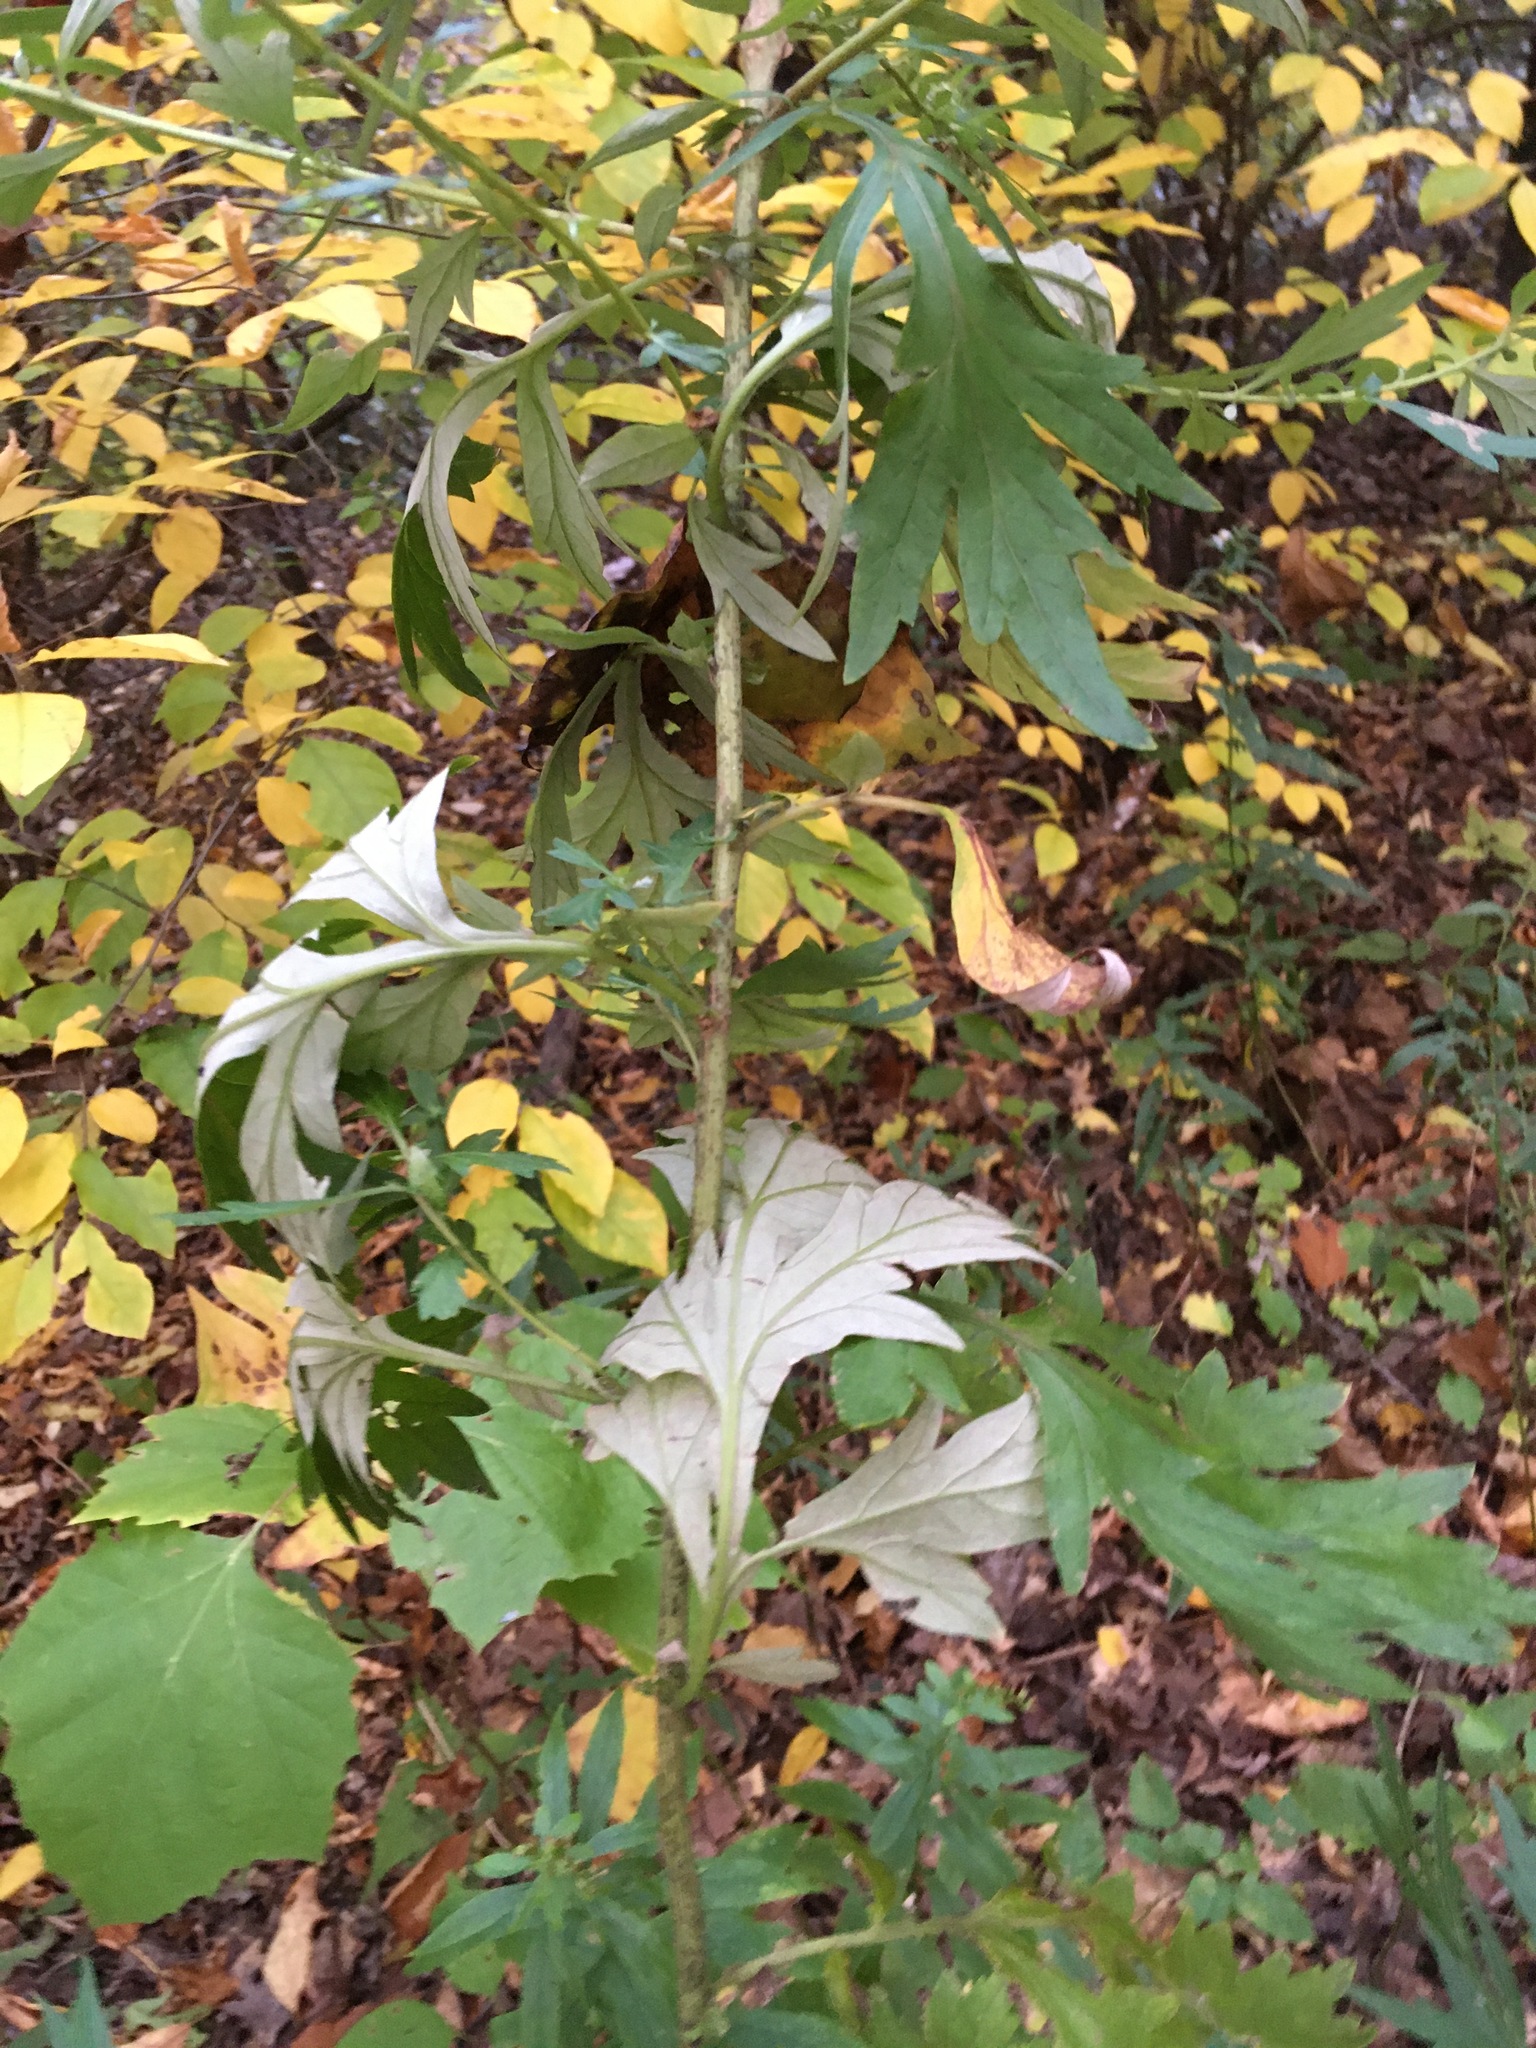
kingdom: Plantae
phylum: Tracheophyta
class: Magnoliopsida
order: Asterales
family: Asteraceae
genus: Artemisia
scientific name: Artemisia vulgaris
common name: Mugwort
